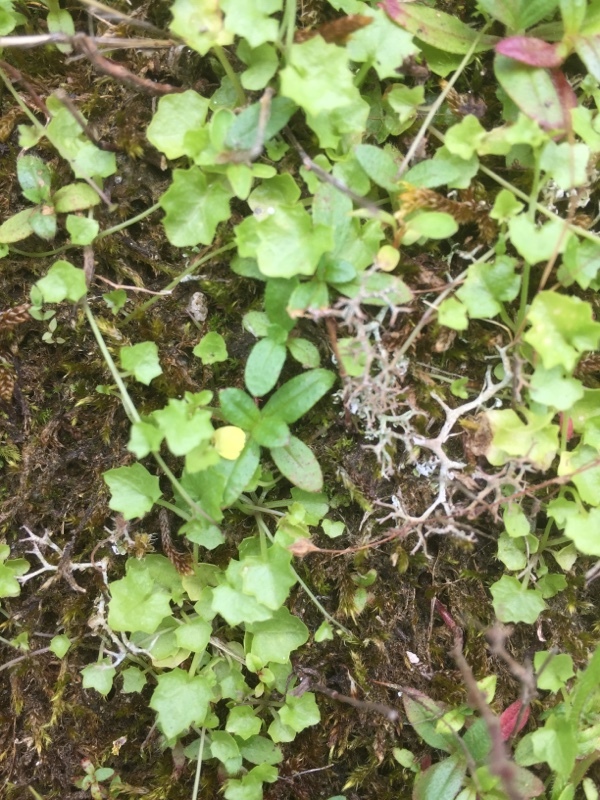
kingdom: Plantae
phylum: Tracheophyta
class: Magnoliopsida
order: Asterales
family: Campanulaceae
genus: Hesperocodon
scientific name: Hesperocodon hederaceus
